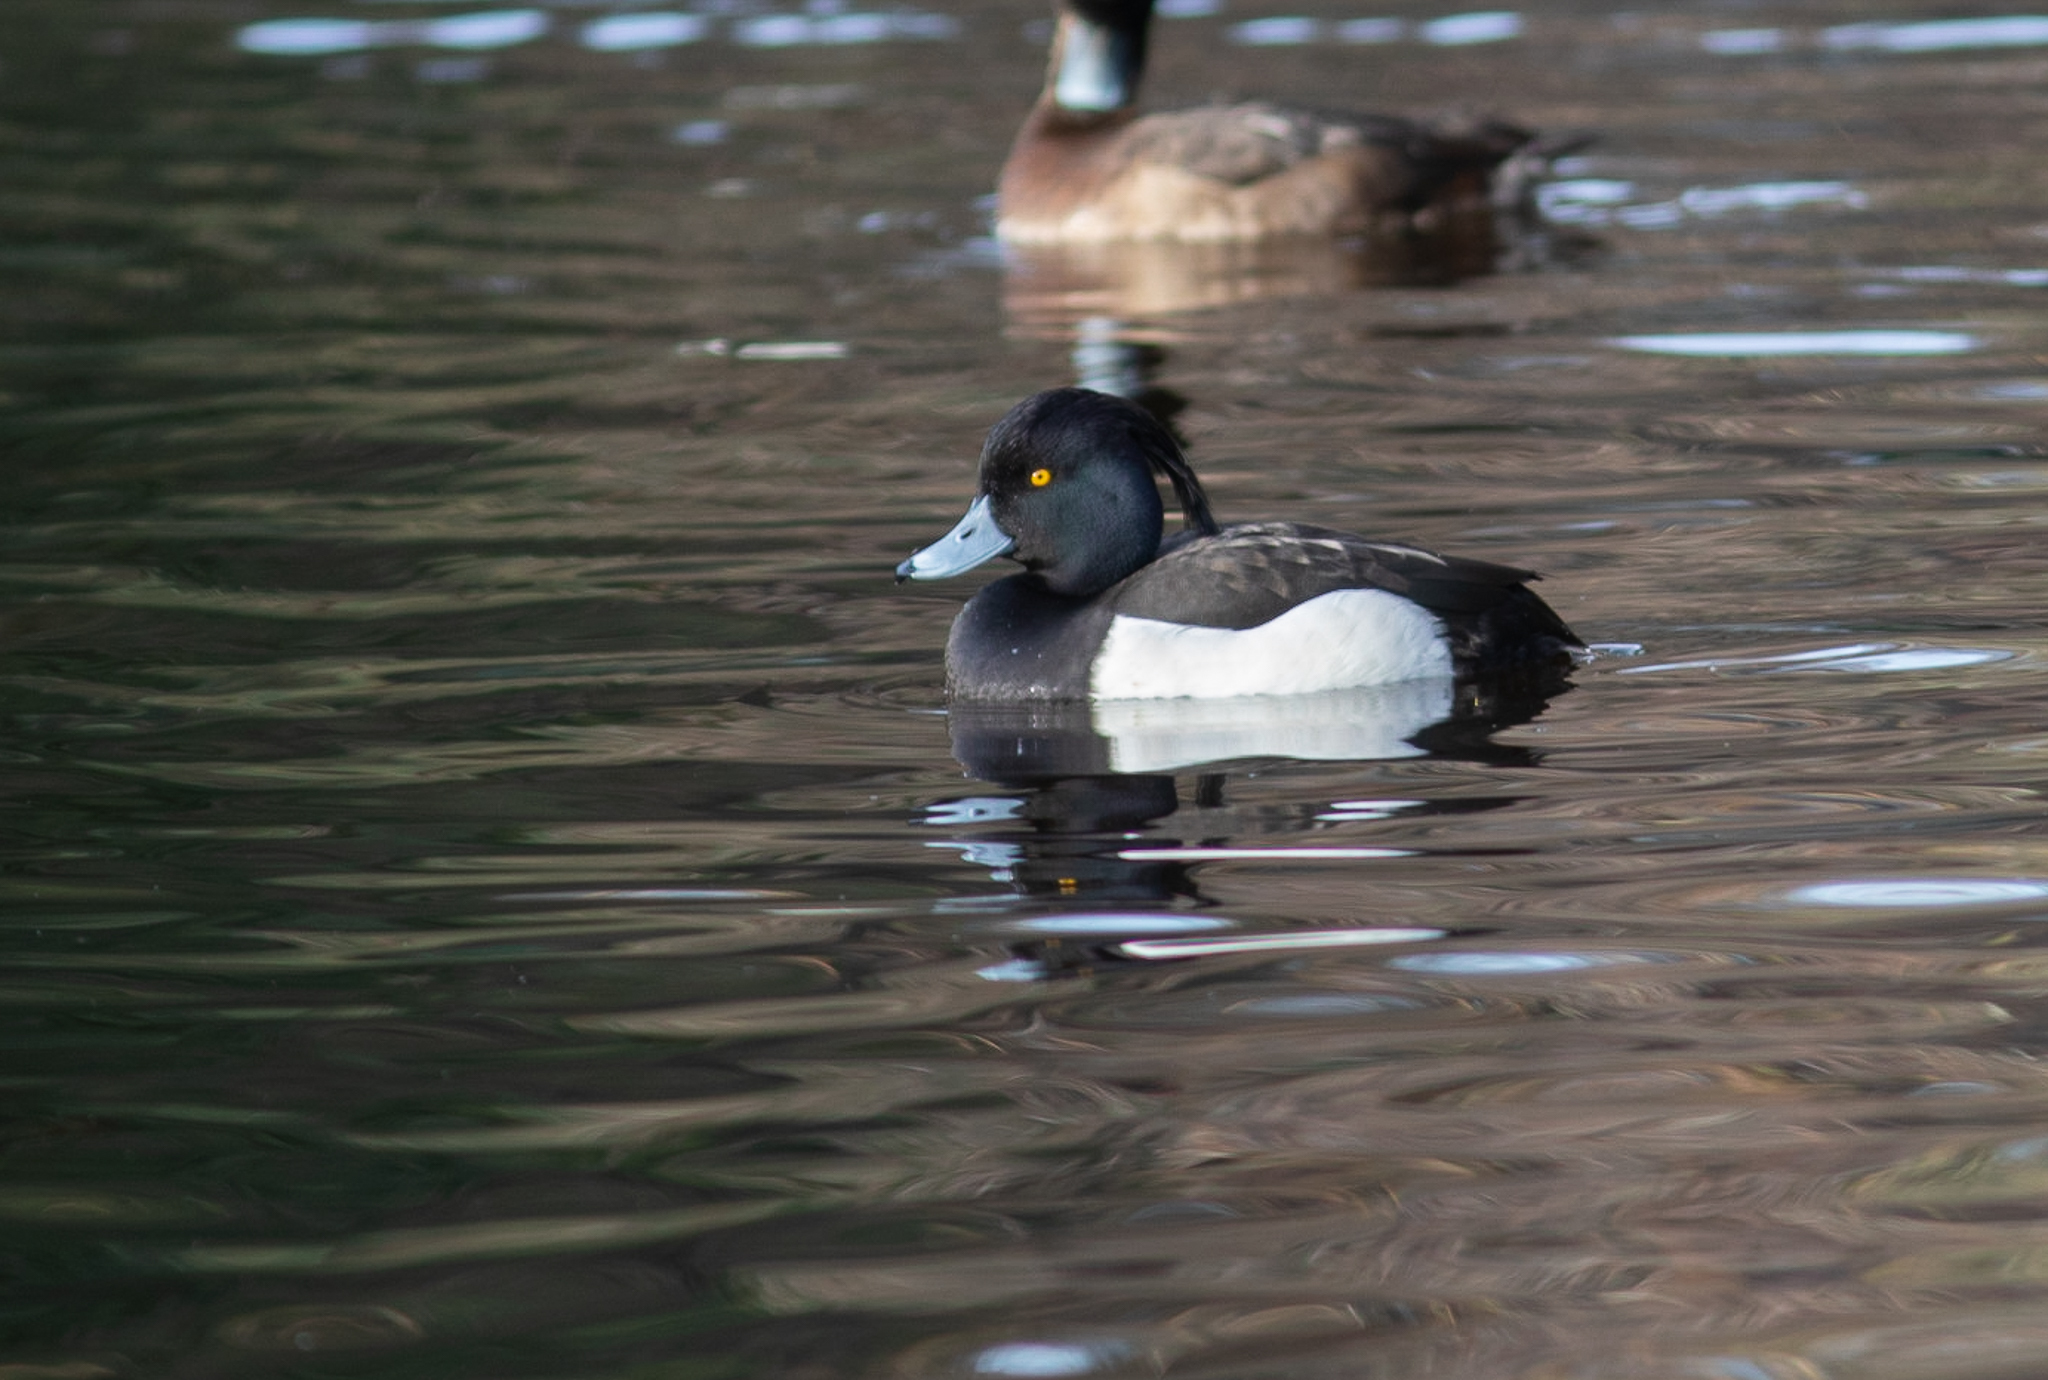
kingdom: Animalia
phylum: Chordata
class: Aves
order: Anseriformes
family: Anatidae
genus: Aythya
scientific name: Aythya fuligula
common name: Tufted duck
